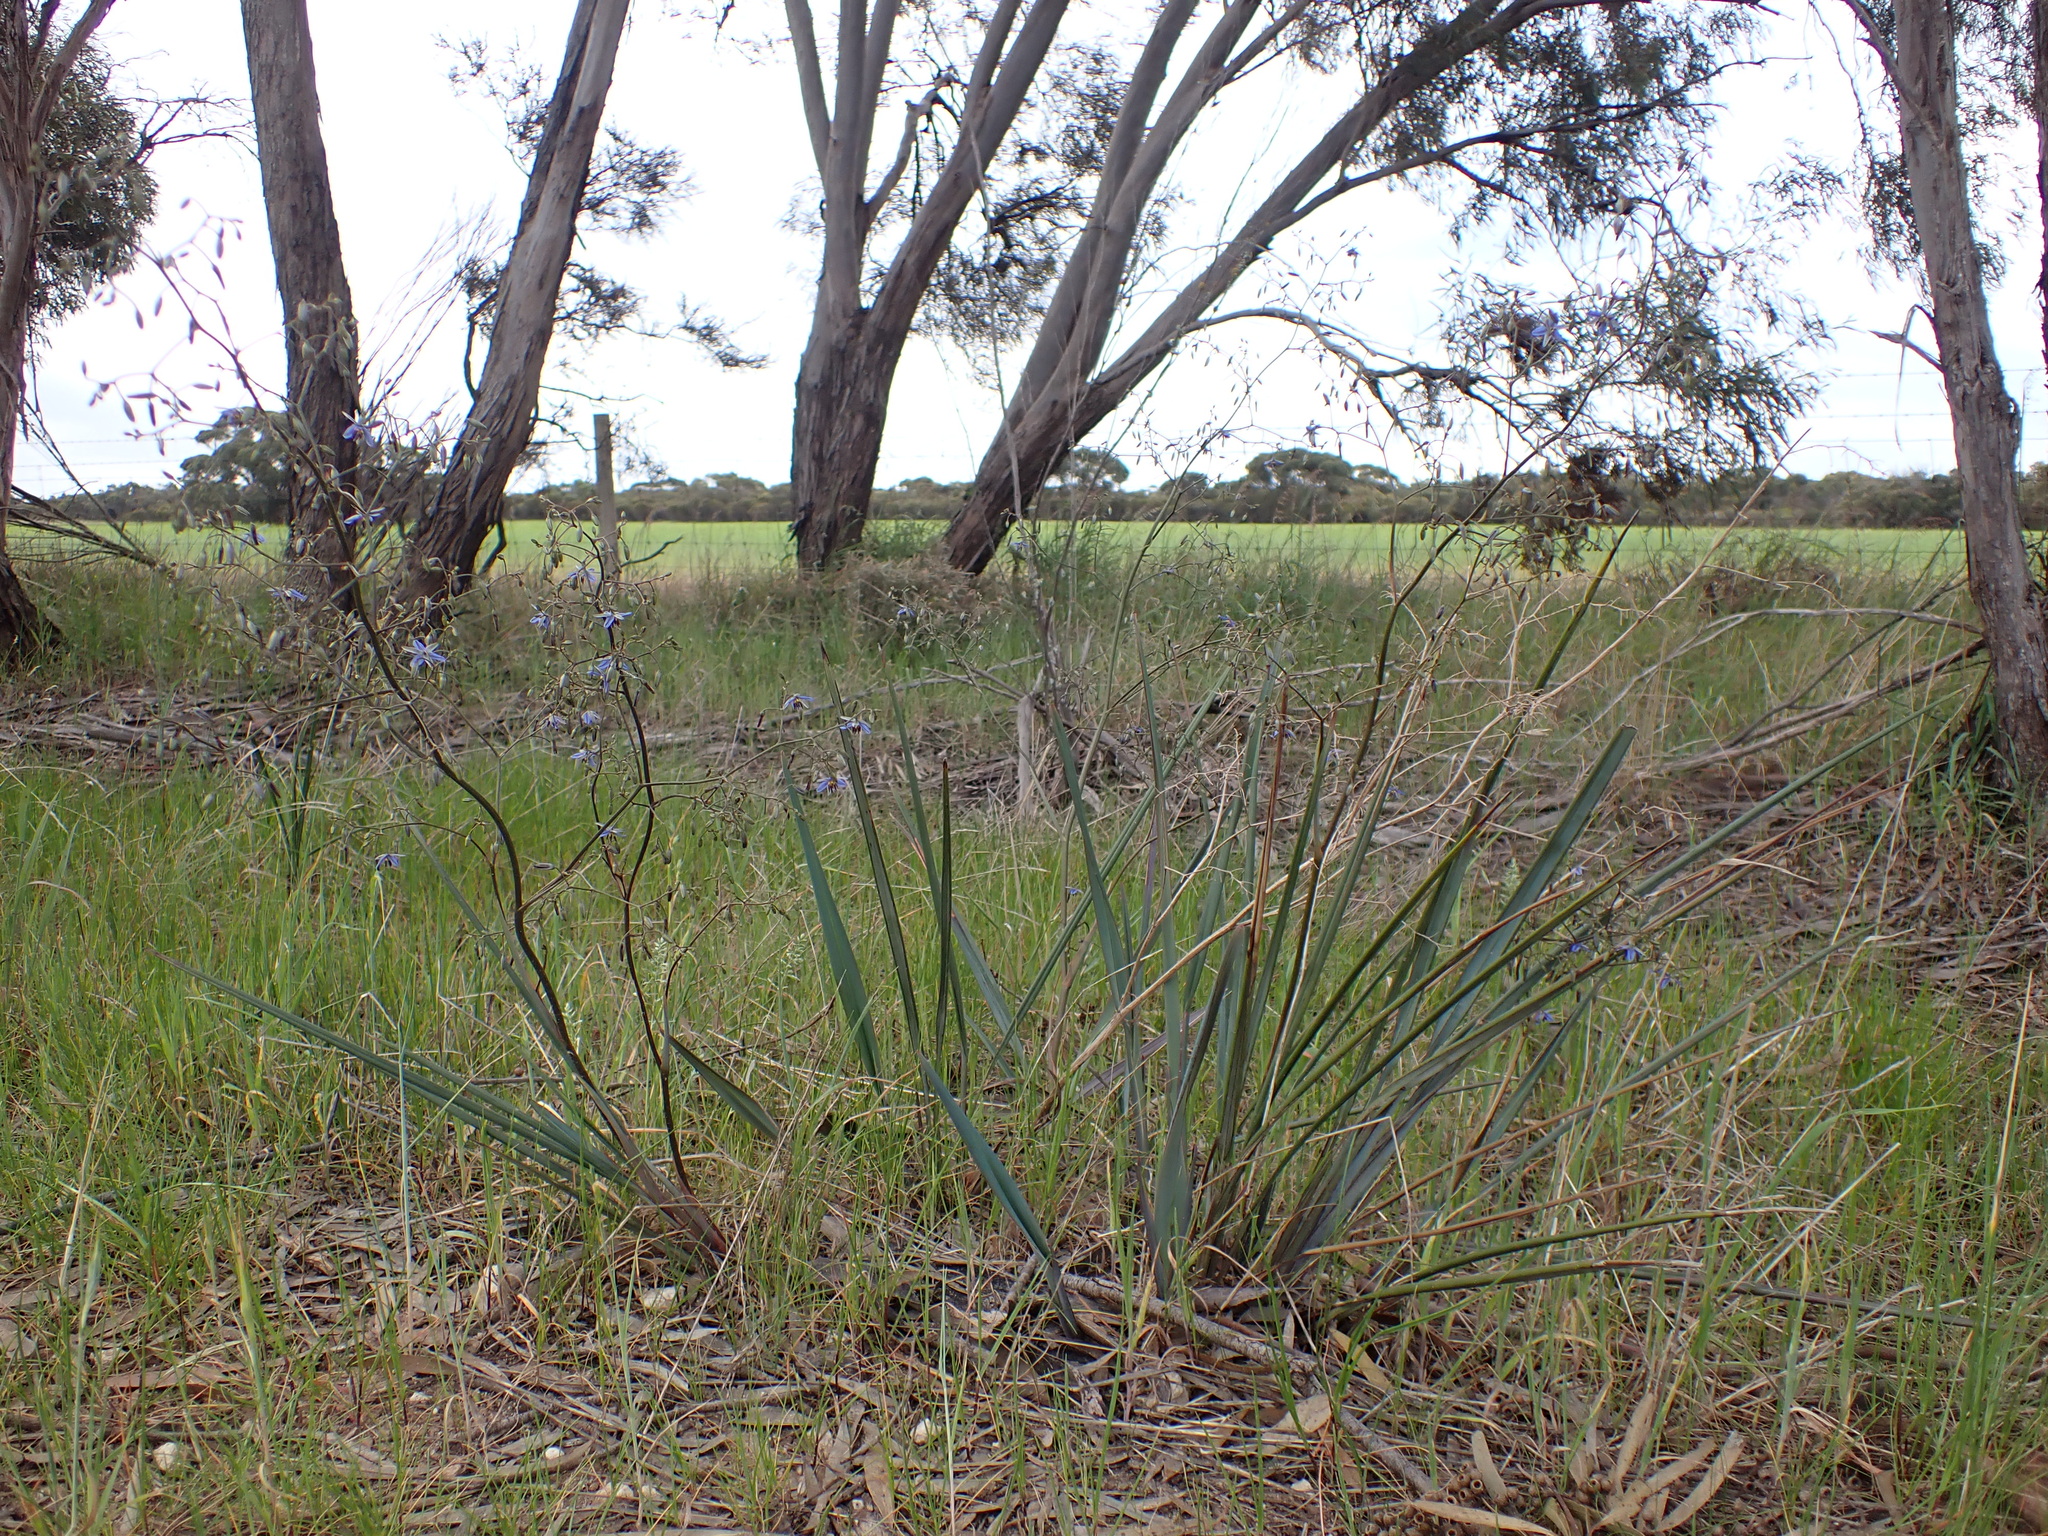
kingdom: Plantae
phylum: Tracheophyta
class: Liliopsida
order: Asparagales
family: Asphodelaceae
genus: Dianella
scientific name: Dianella revoluta
